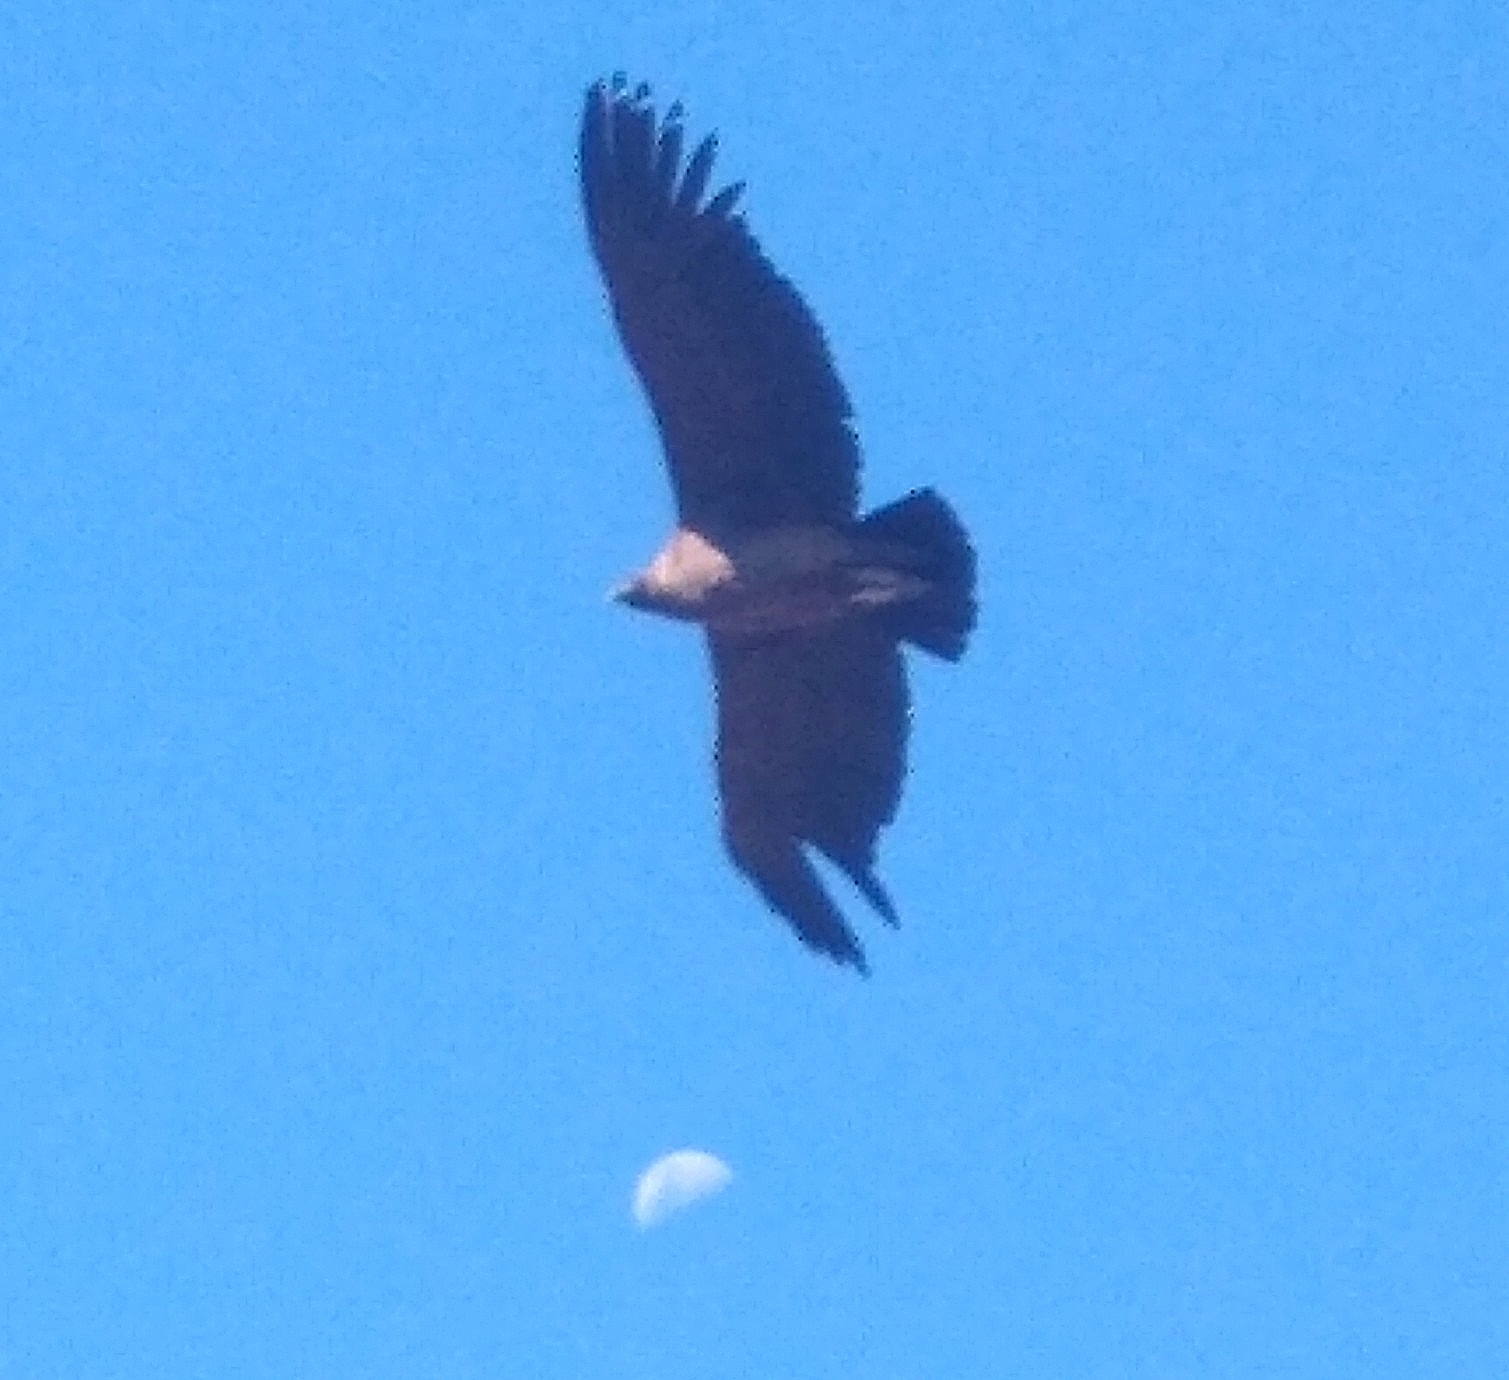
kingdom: Animalia
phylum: Chordata
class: Aves
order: Accipitriformes
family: Cathartidae
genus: Vultur
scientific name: Vultur gryphus
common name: Andean condor
